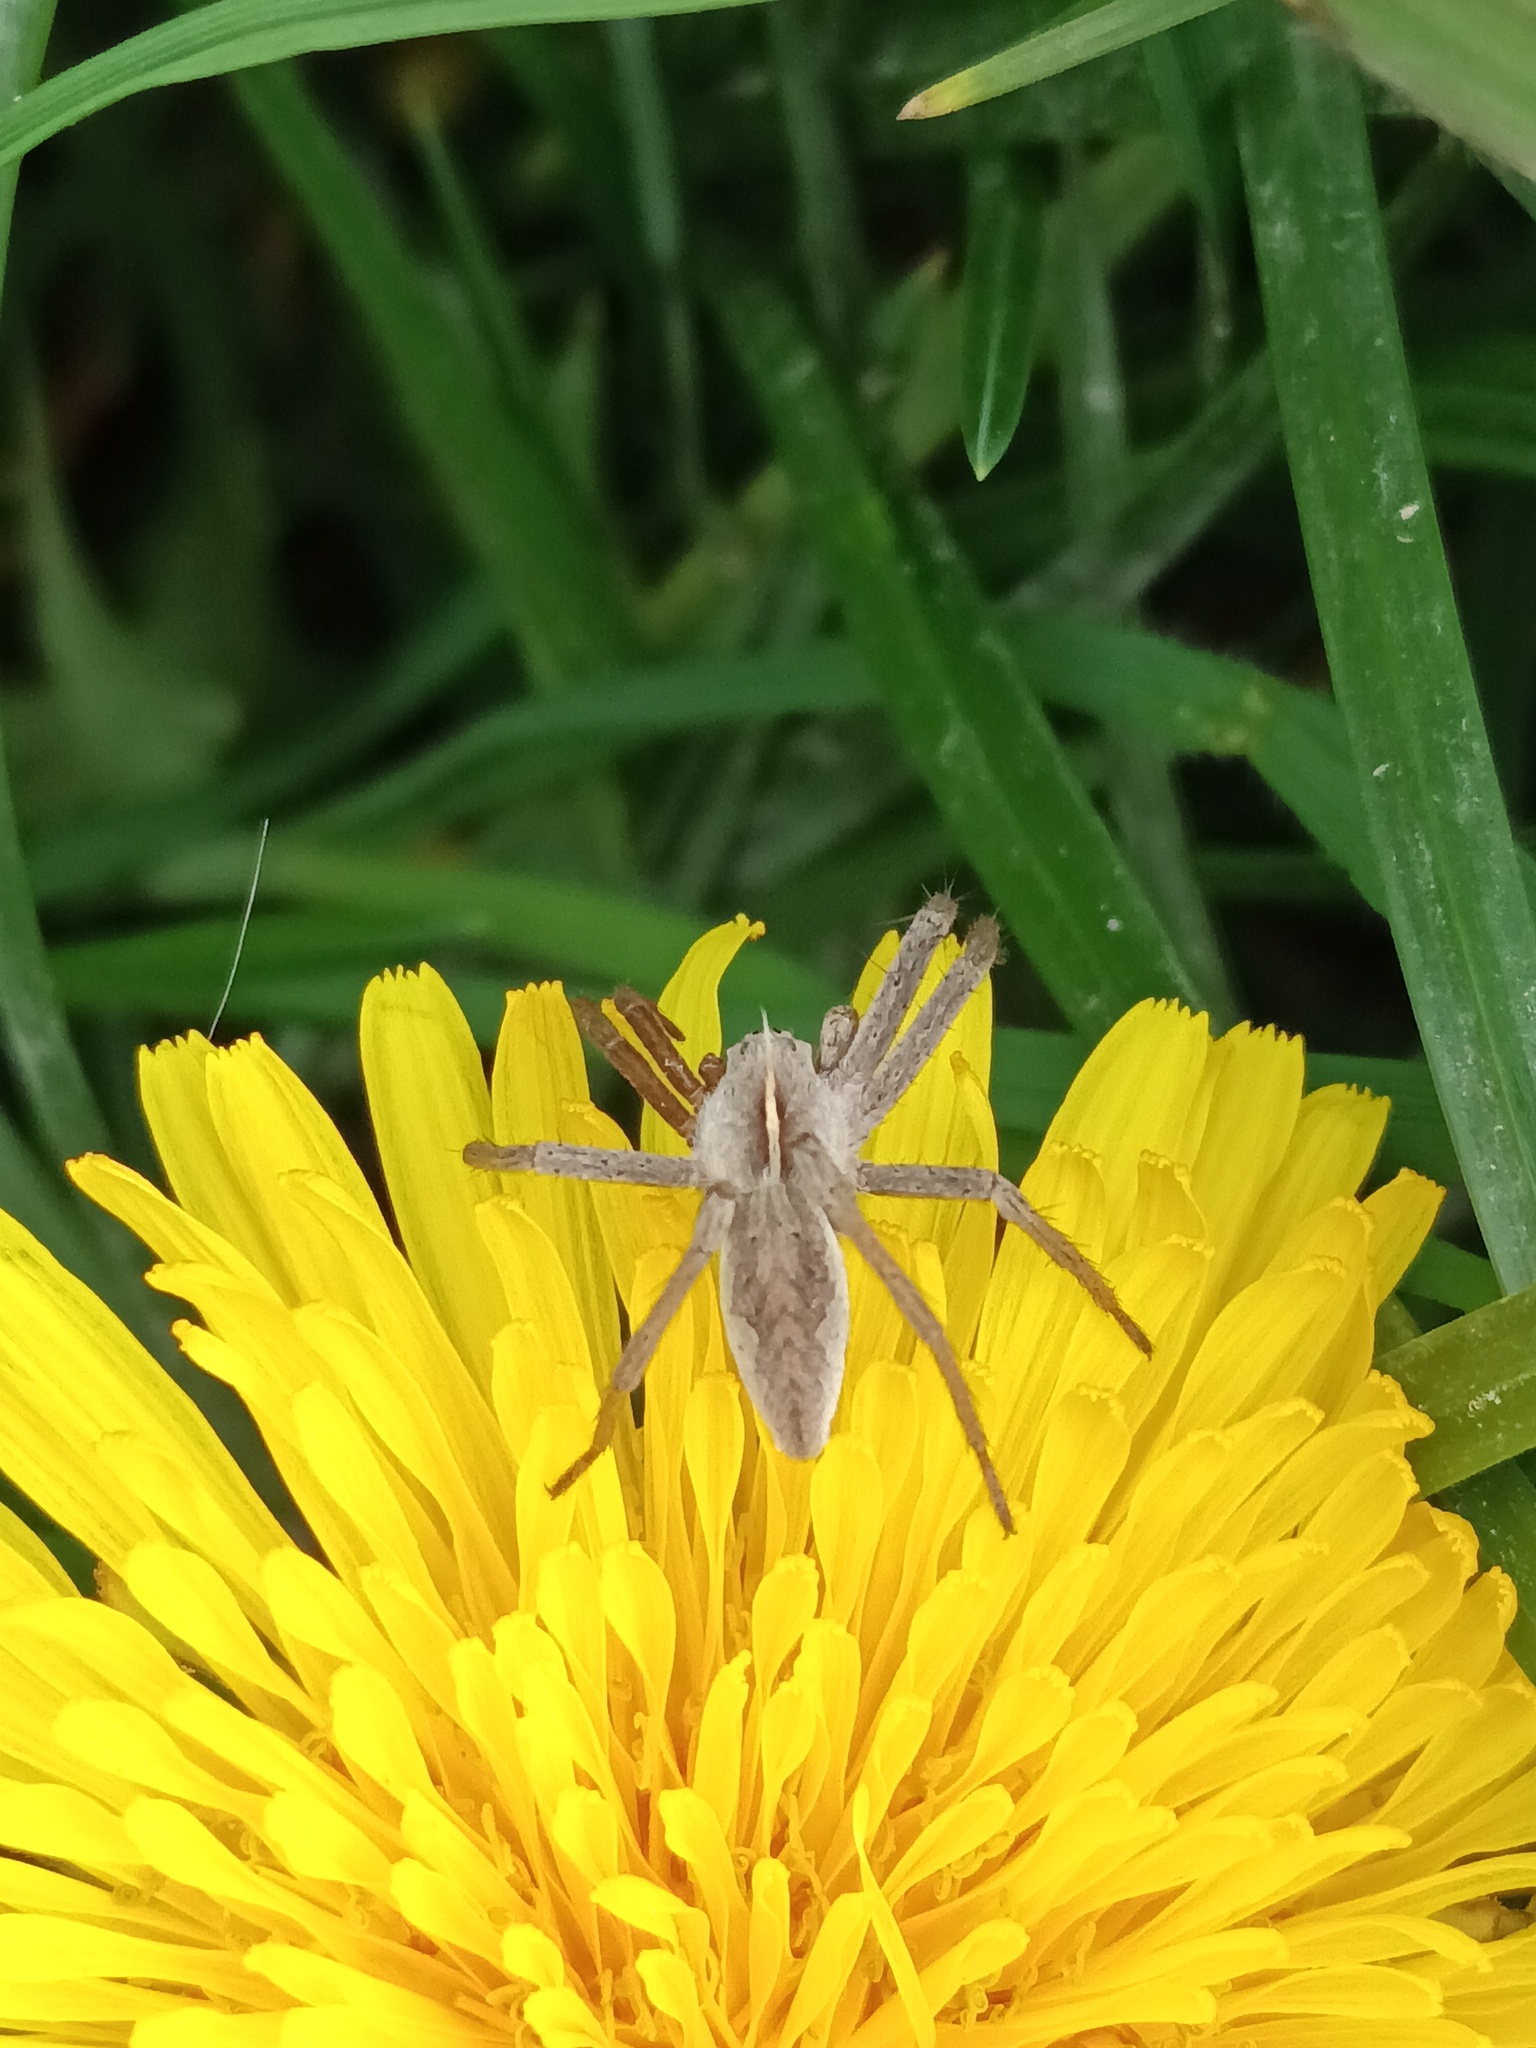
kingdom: Animalia
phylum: Arthropoda
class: Arachnida
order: Araneae
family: Pisauridae
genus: Pisaura
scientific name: Pisaura mirabilis
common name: Tent spider
